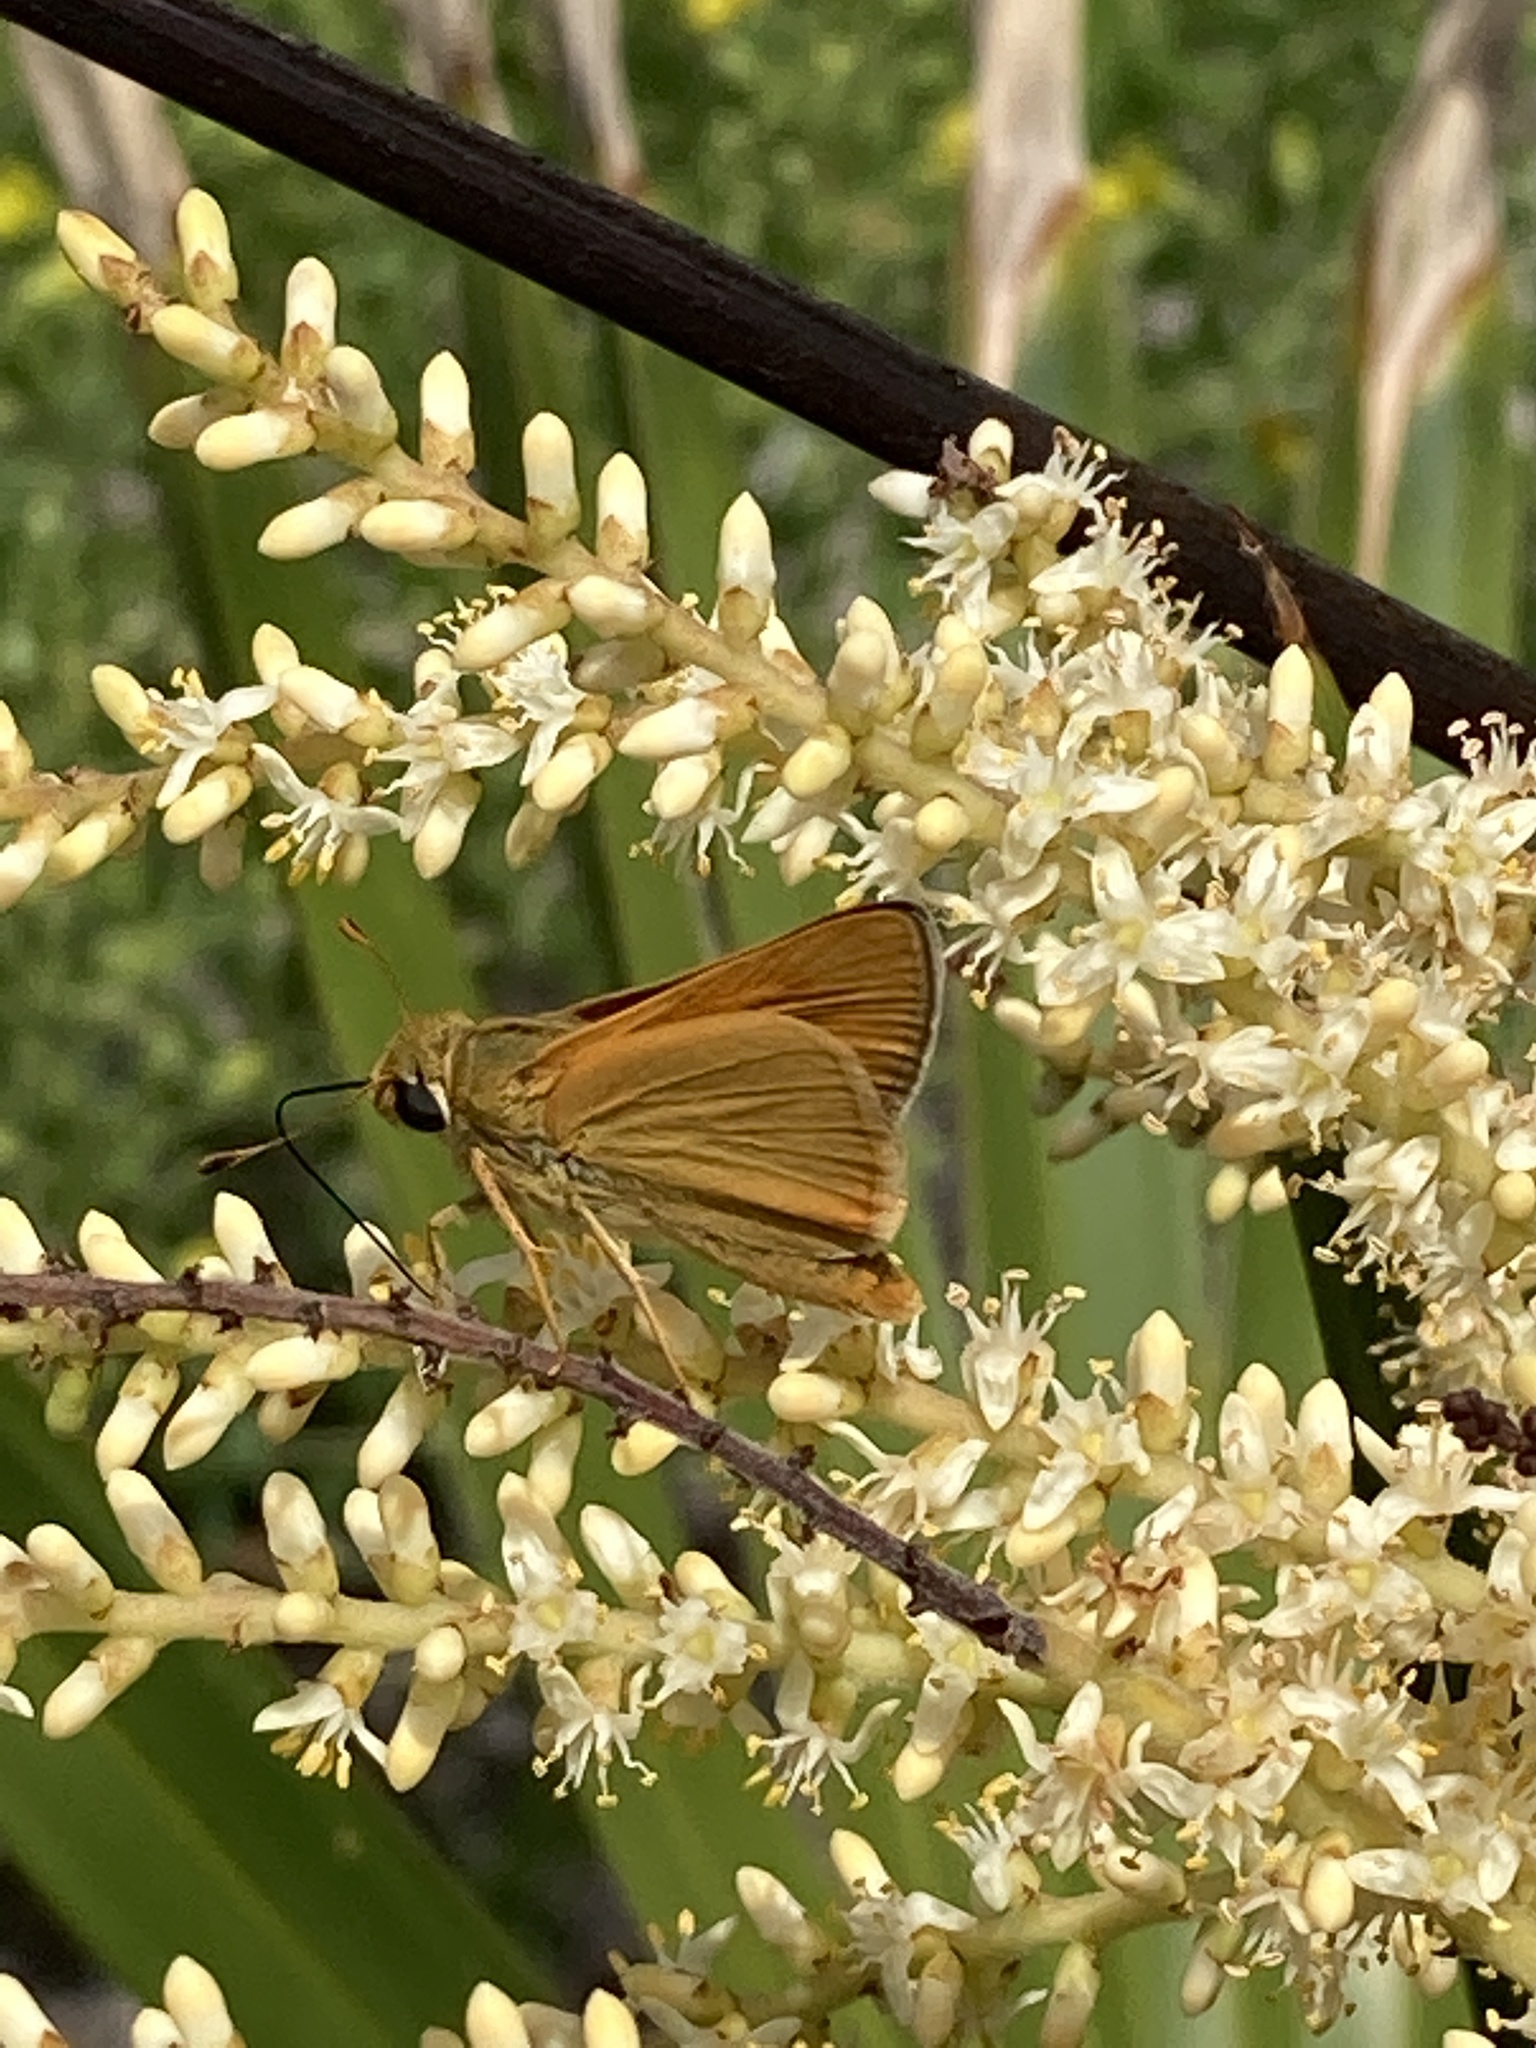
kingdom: Animalia
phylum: Arthropoda
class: Insecta
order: Lepidoptera
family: Hesperiidae
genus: Hesperia
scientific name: Hesperia meskei
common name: Meske's skipper
